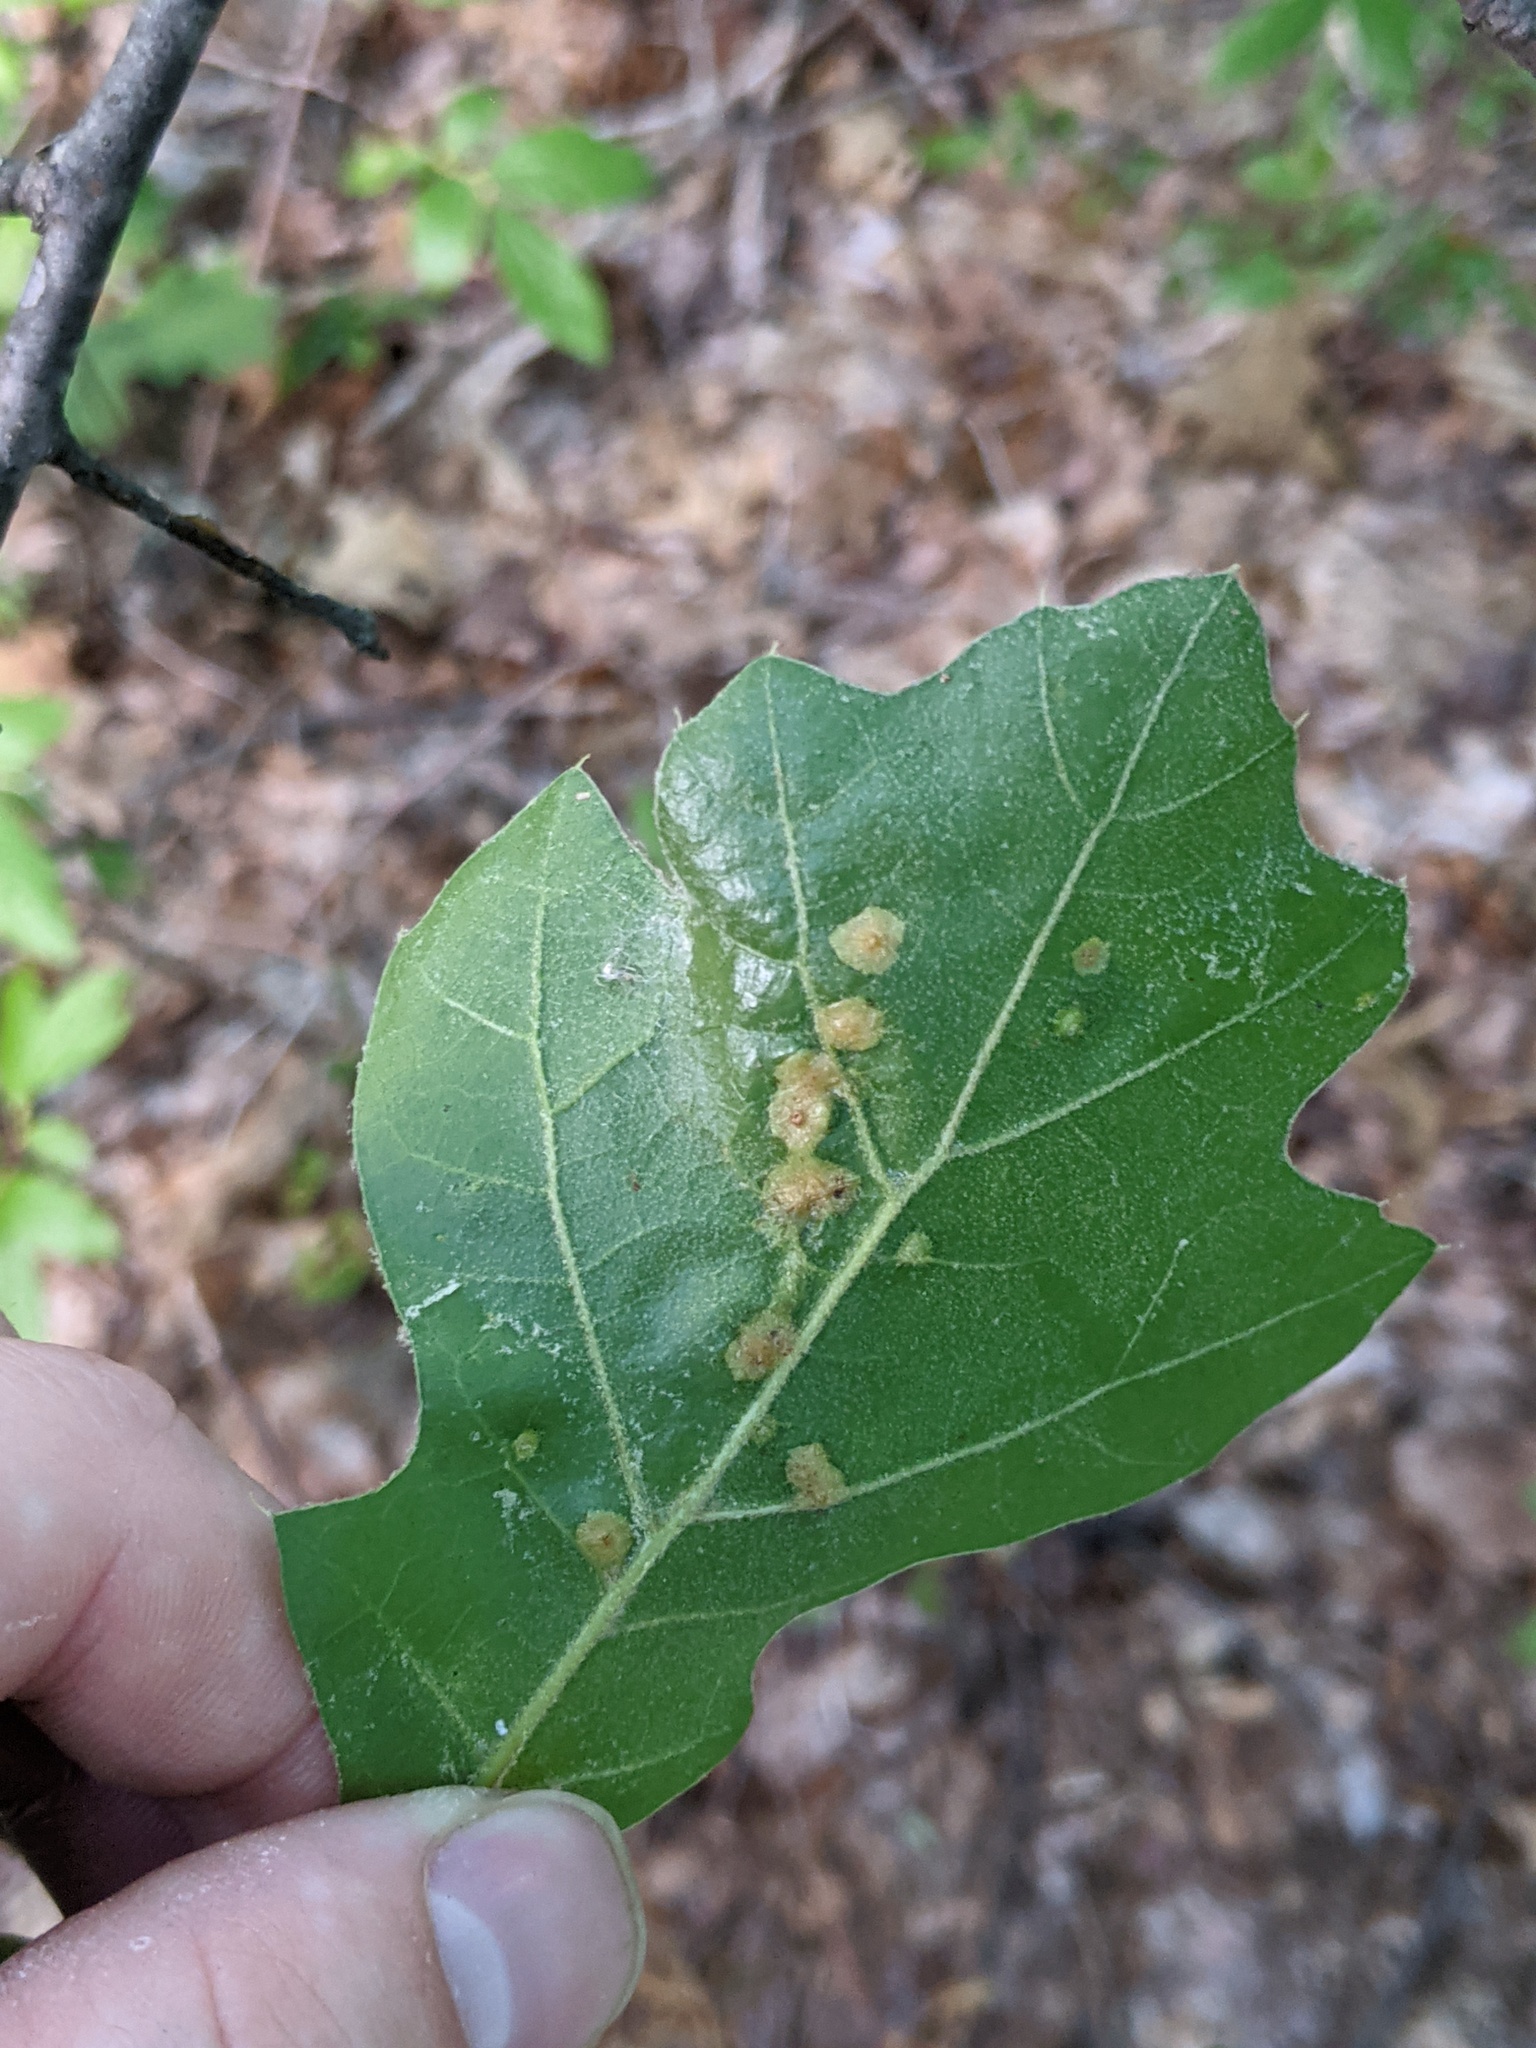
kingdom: Animalia
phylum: Arthropoda
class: Insecta
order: Diptera
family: Cecidomyiidae
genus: Polystepha
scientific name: Polystepha pilulae
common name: Oak leaf gall midge
